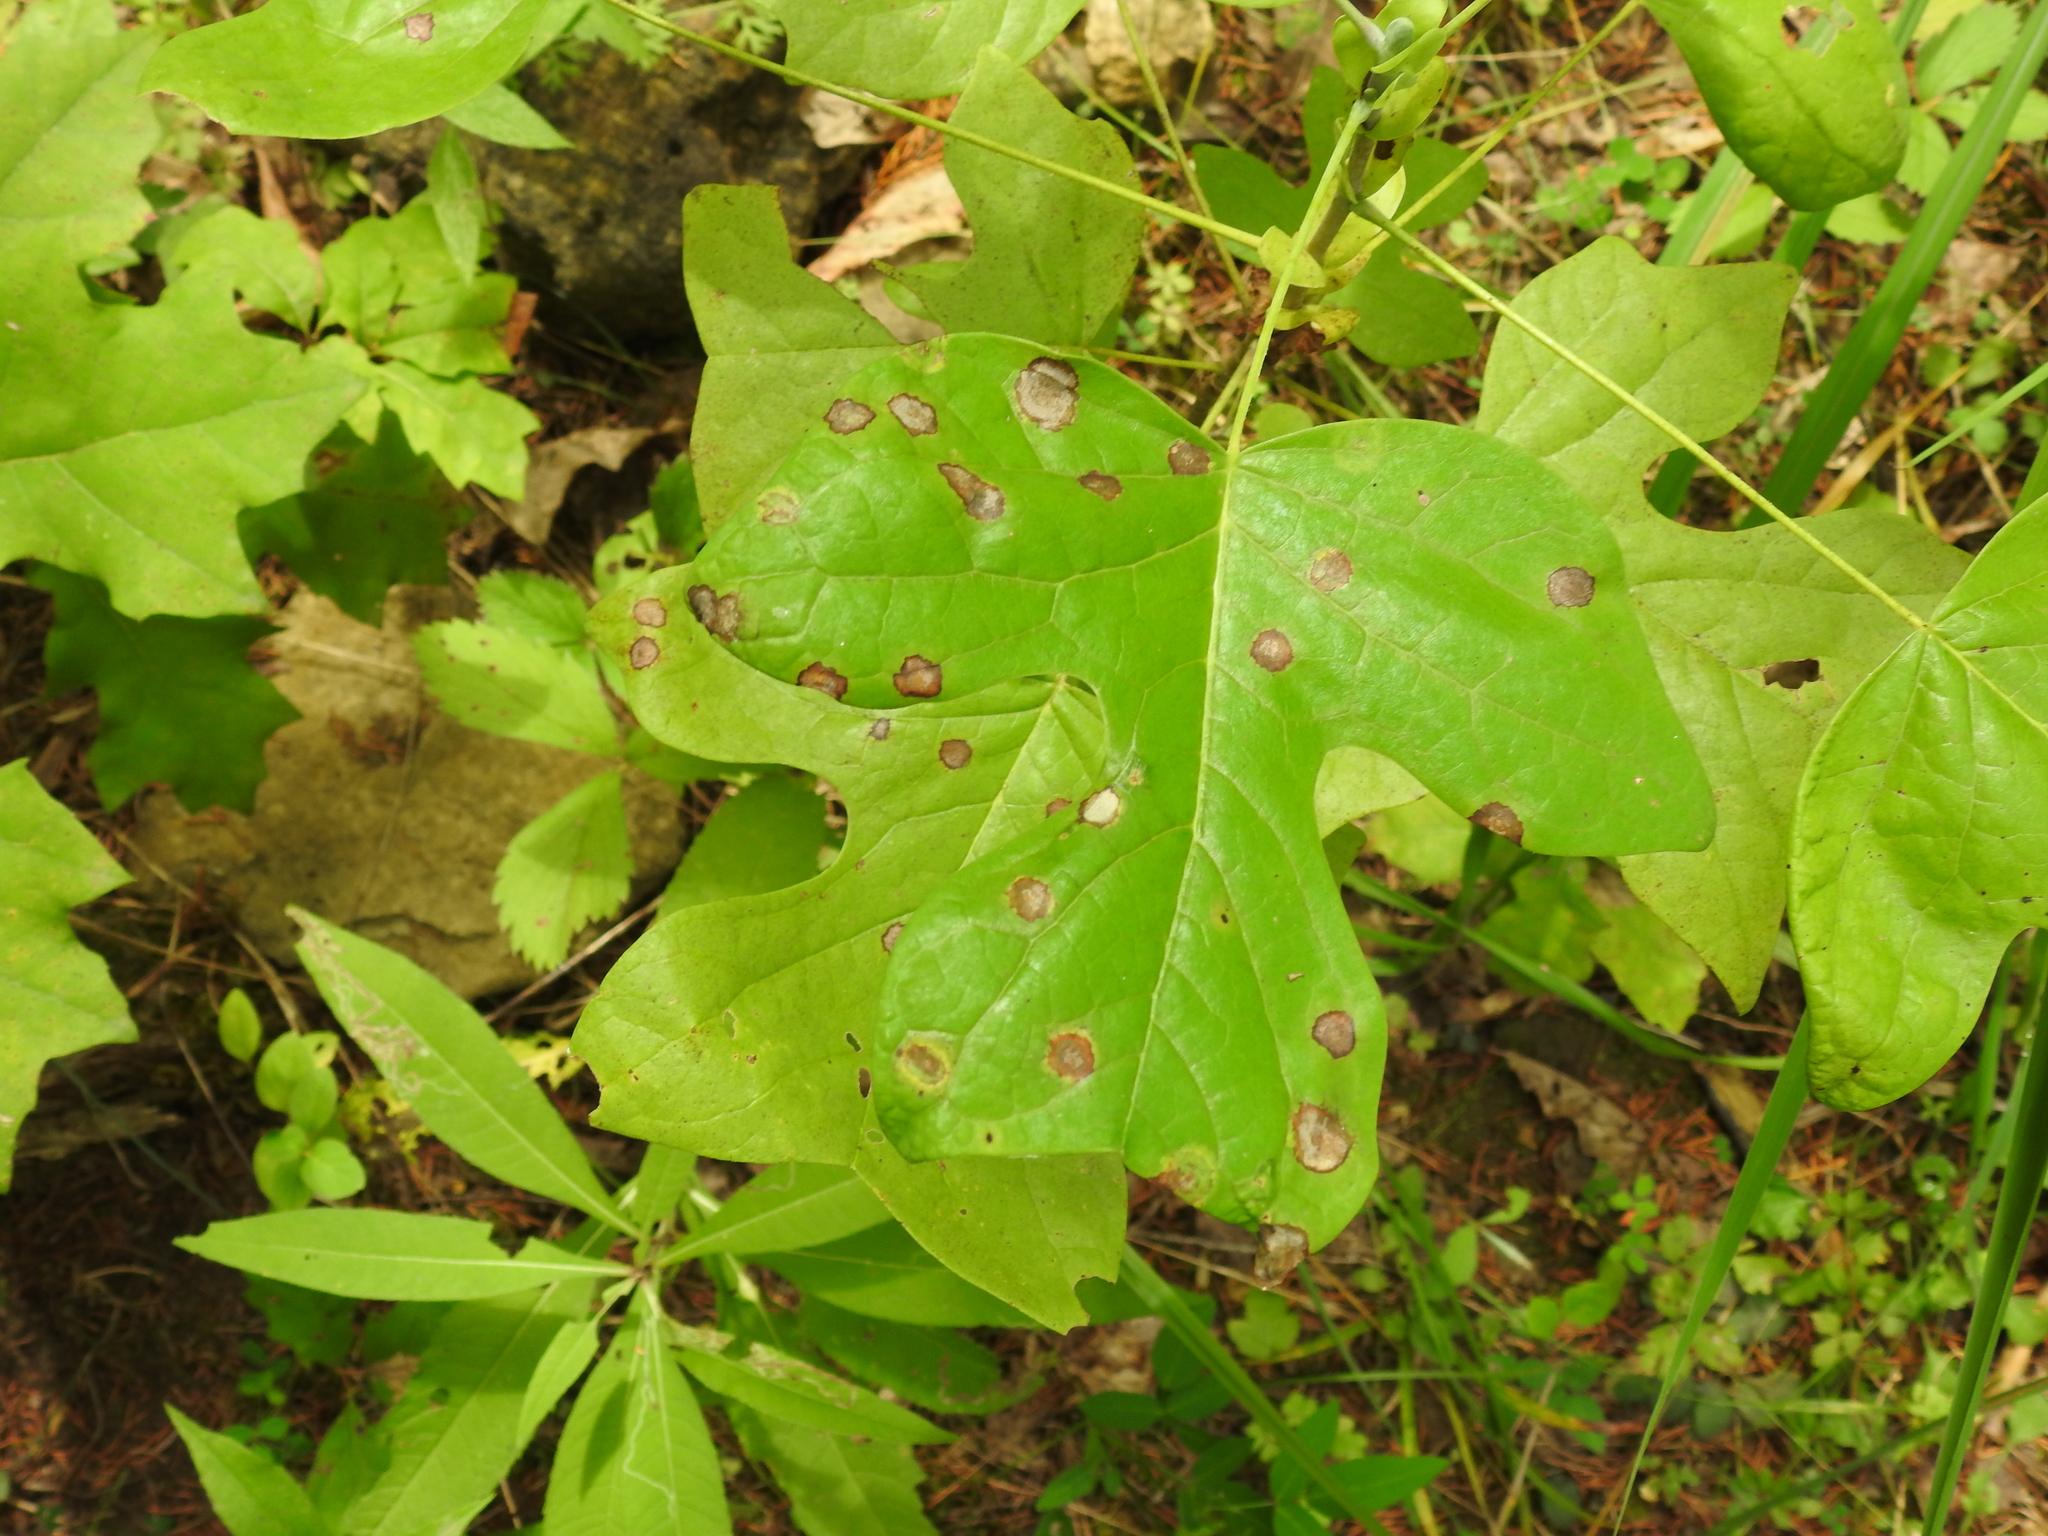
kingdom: Animalia
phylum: Arthropoda
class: Insecta
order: Diptera
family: Cecidomyiidae
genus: Resseliella
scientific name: Resseliella liriodendri
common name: Tulip tree leaf spot gall midge
